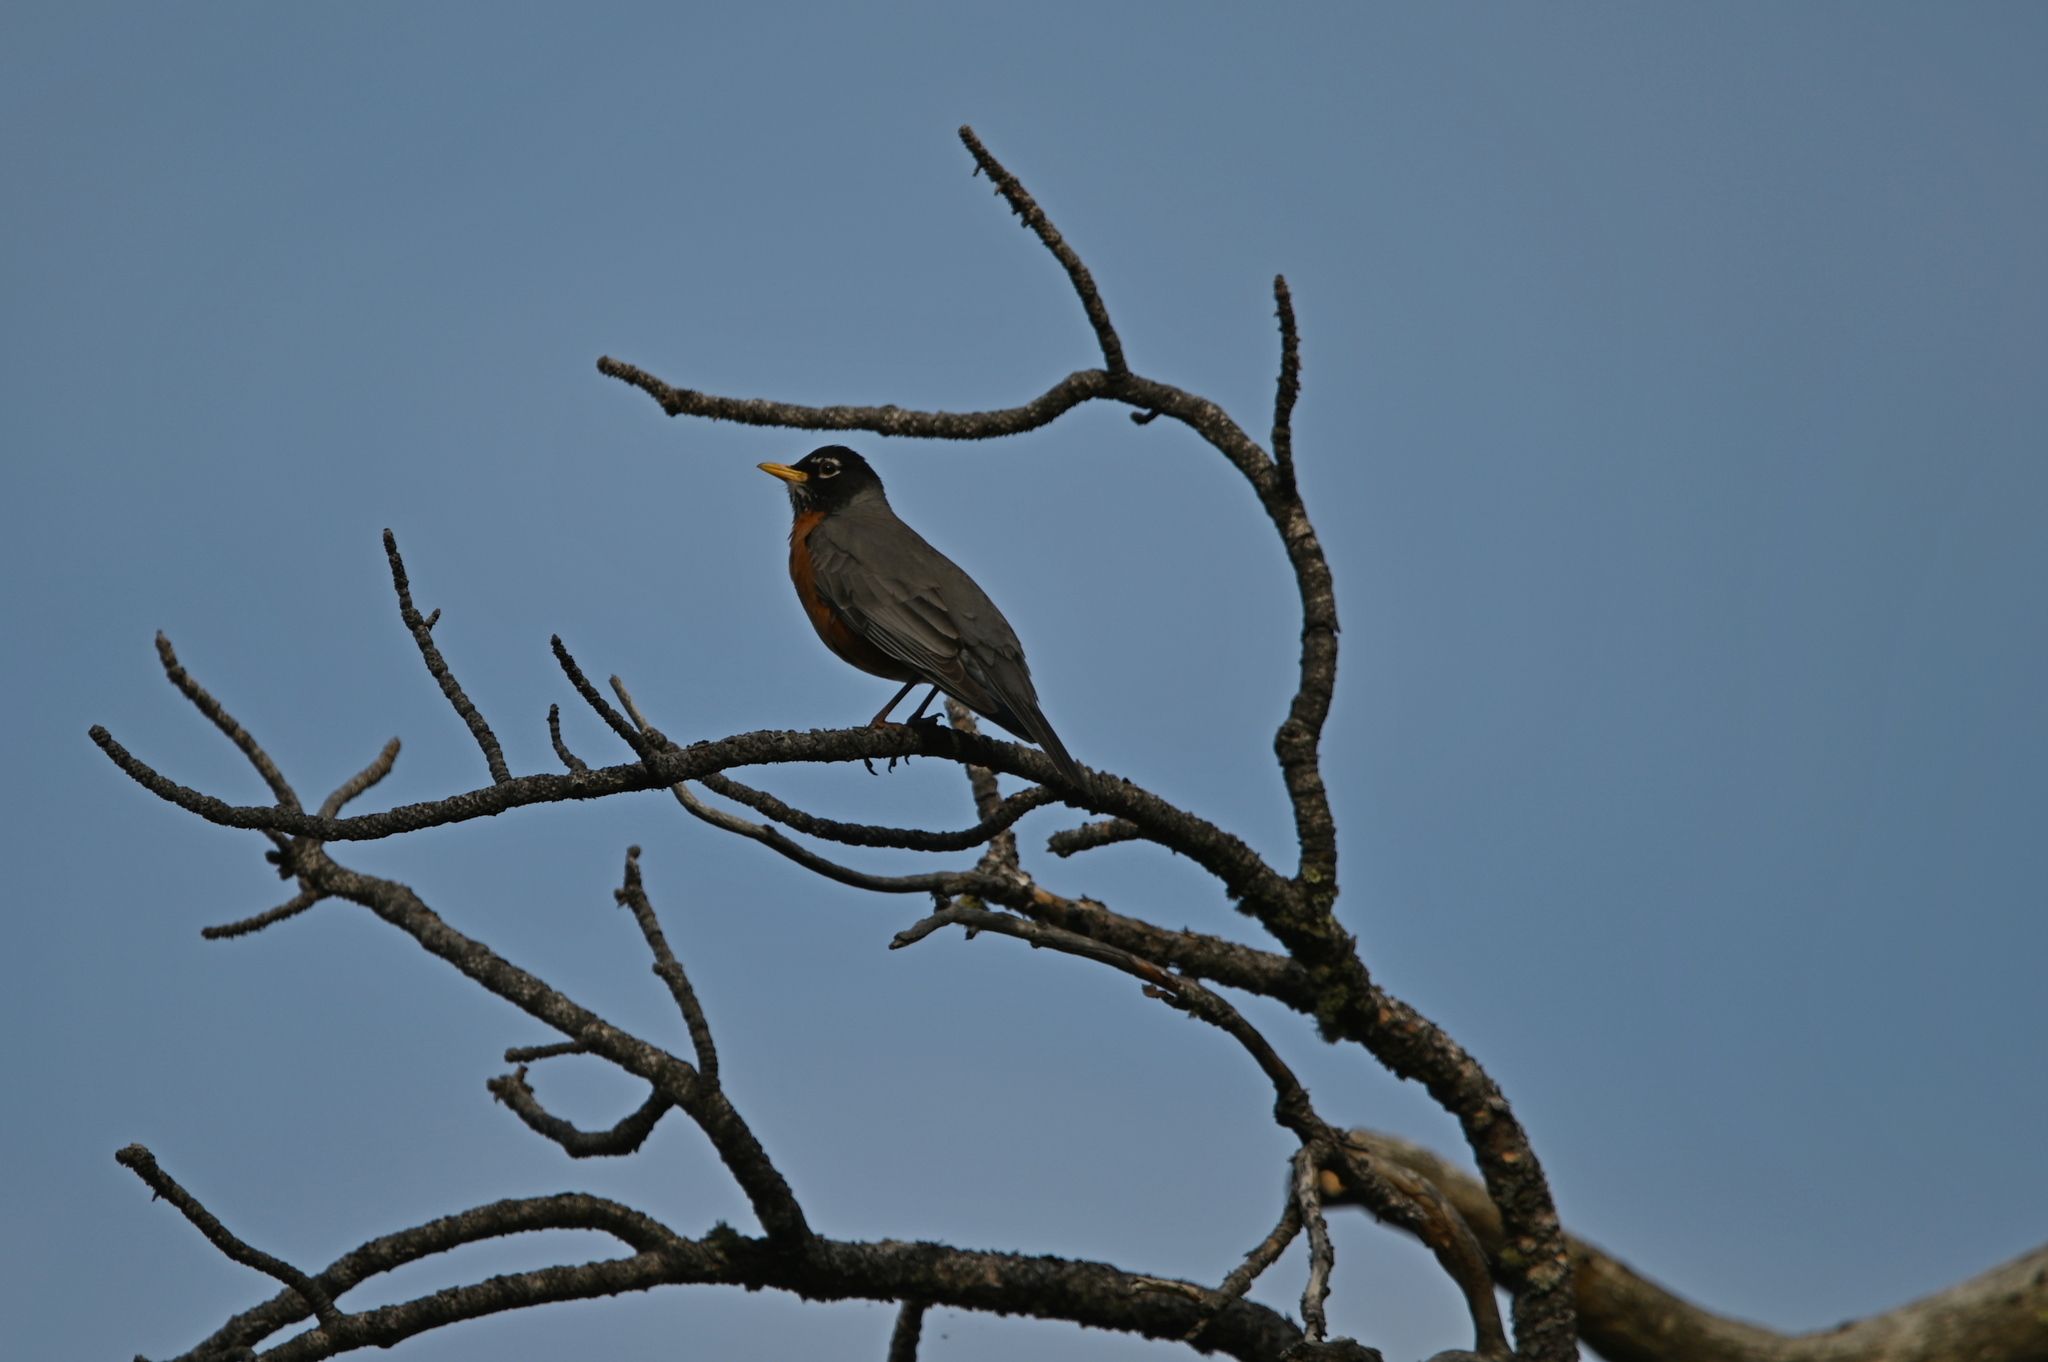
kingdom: Animalia
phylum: Chordata
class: Aves
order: Passeriformes
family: Turdidae
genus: Turdus
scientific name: Turdus migratorius
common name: American robin
